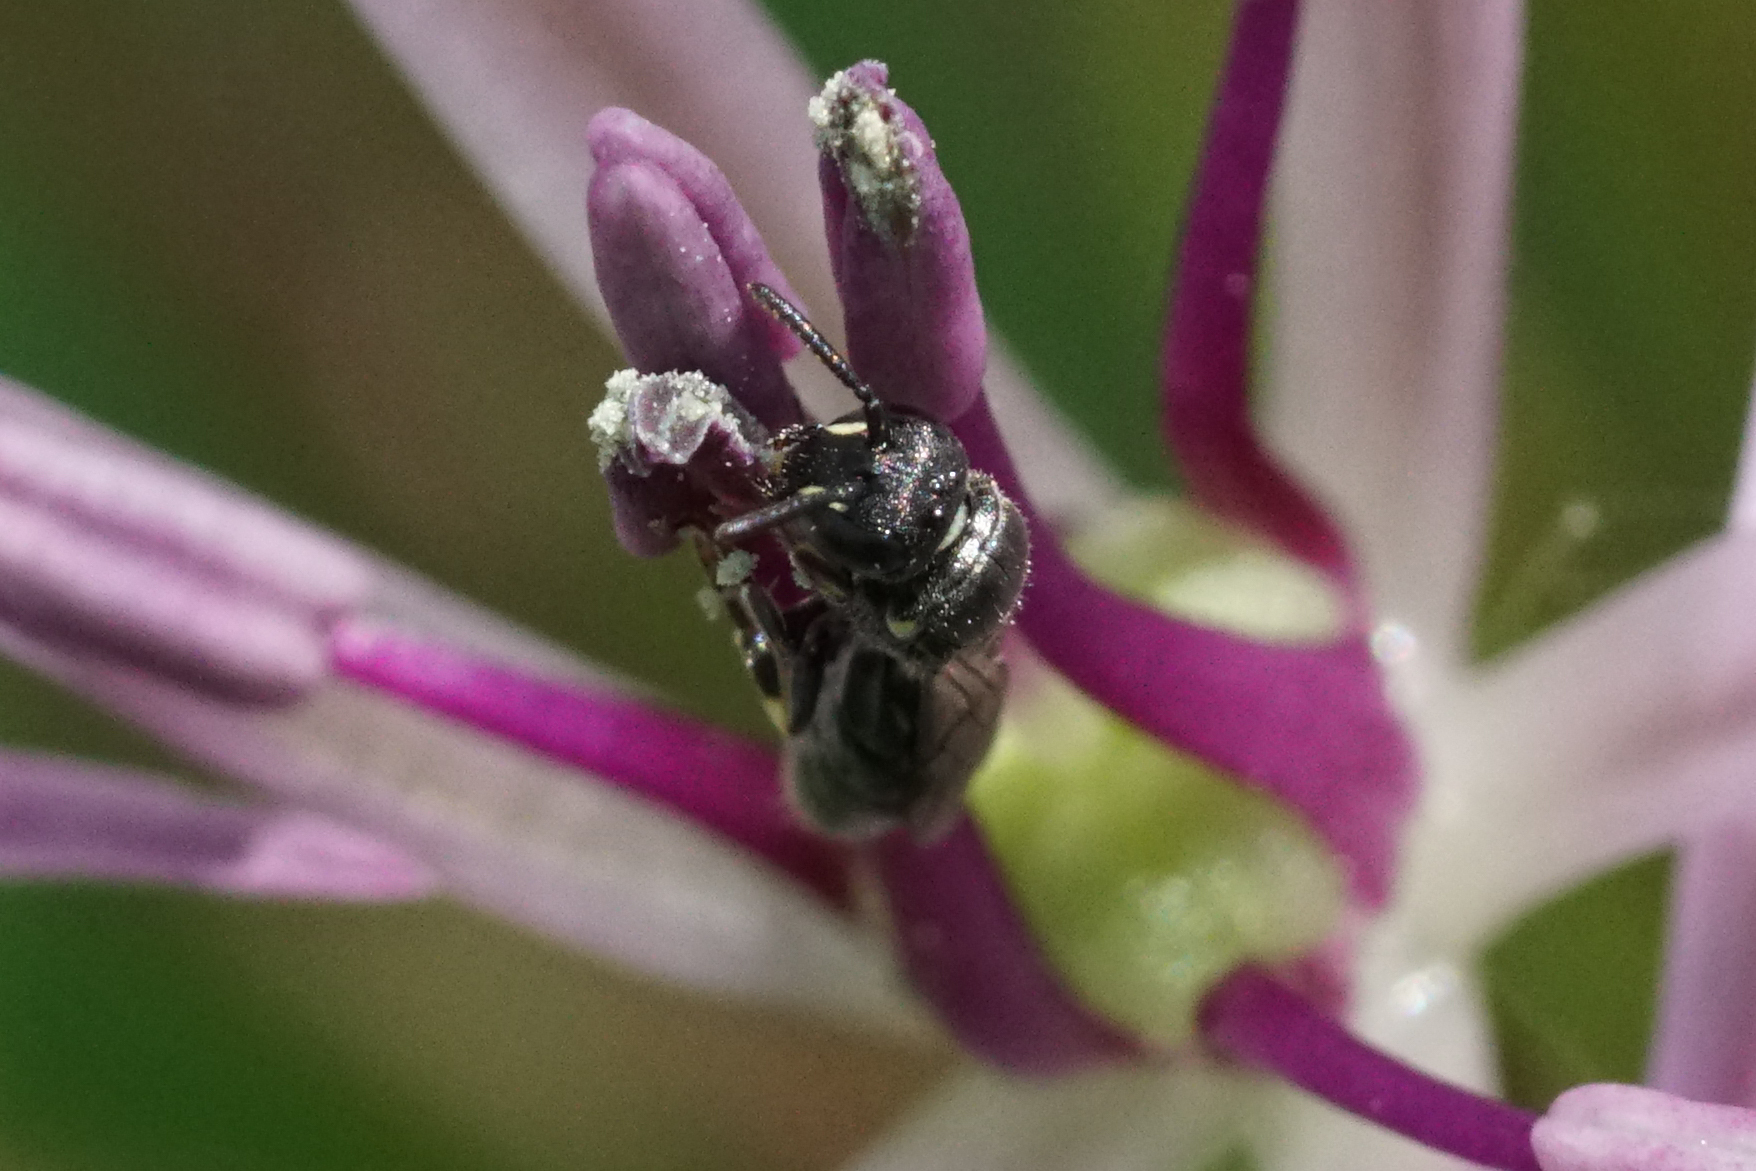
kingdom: Animalia
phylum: Arthropoda
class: Insecta
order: Hymenoptera
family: Colletidae
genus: Hylaeus
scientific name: Hylaeus mesillae
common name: Mesilla masked bee
